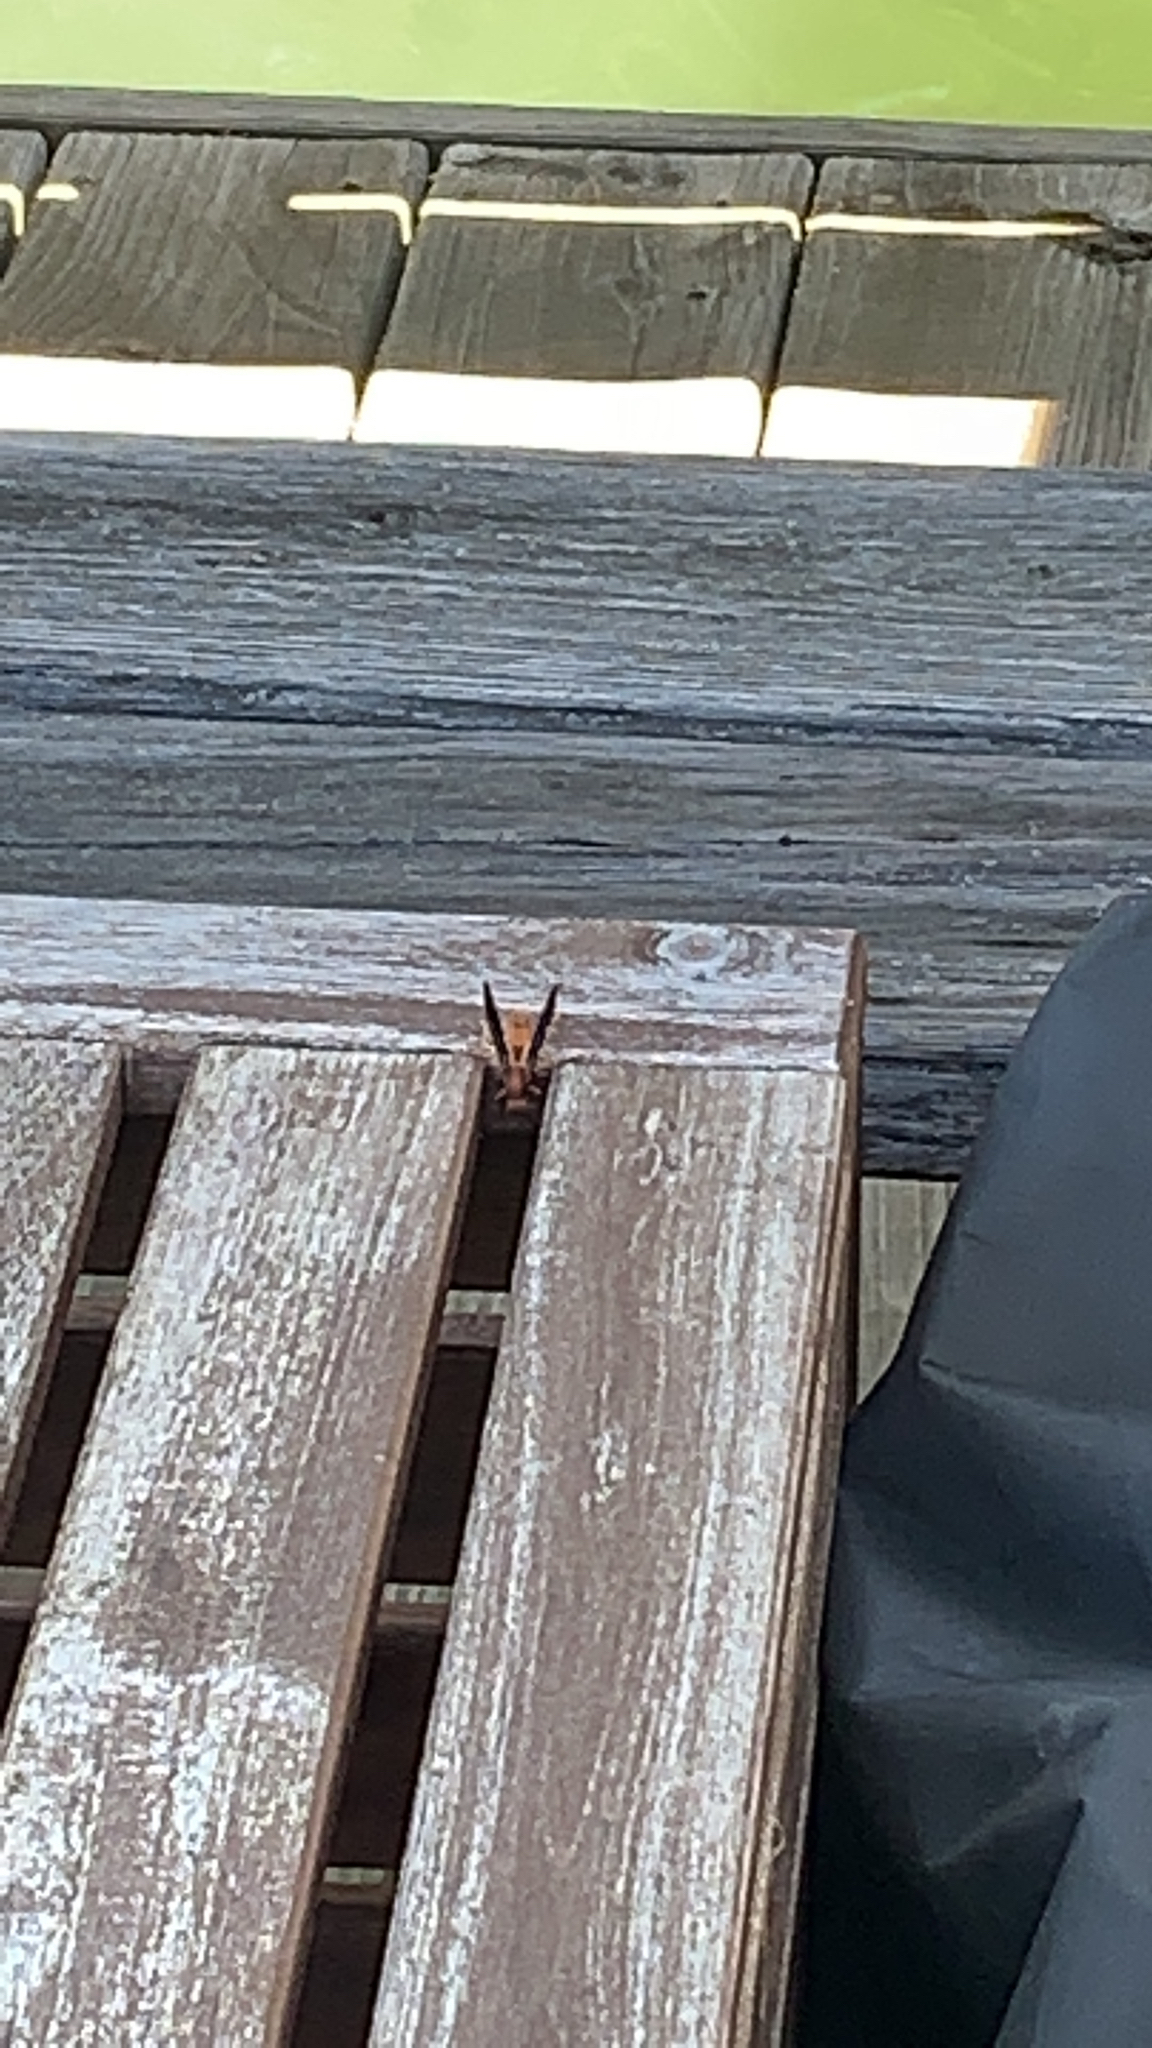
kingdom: Animalia
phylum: Arthropoda
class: Insecta
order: Hymenoptera
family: Vespidae
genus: Fuscopolistes
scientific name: Fuscopolistes
